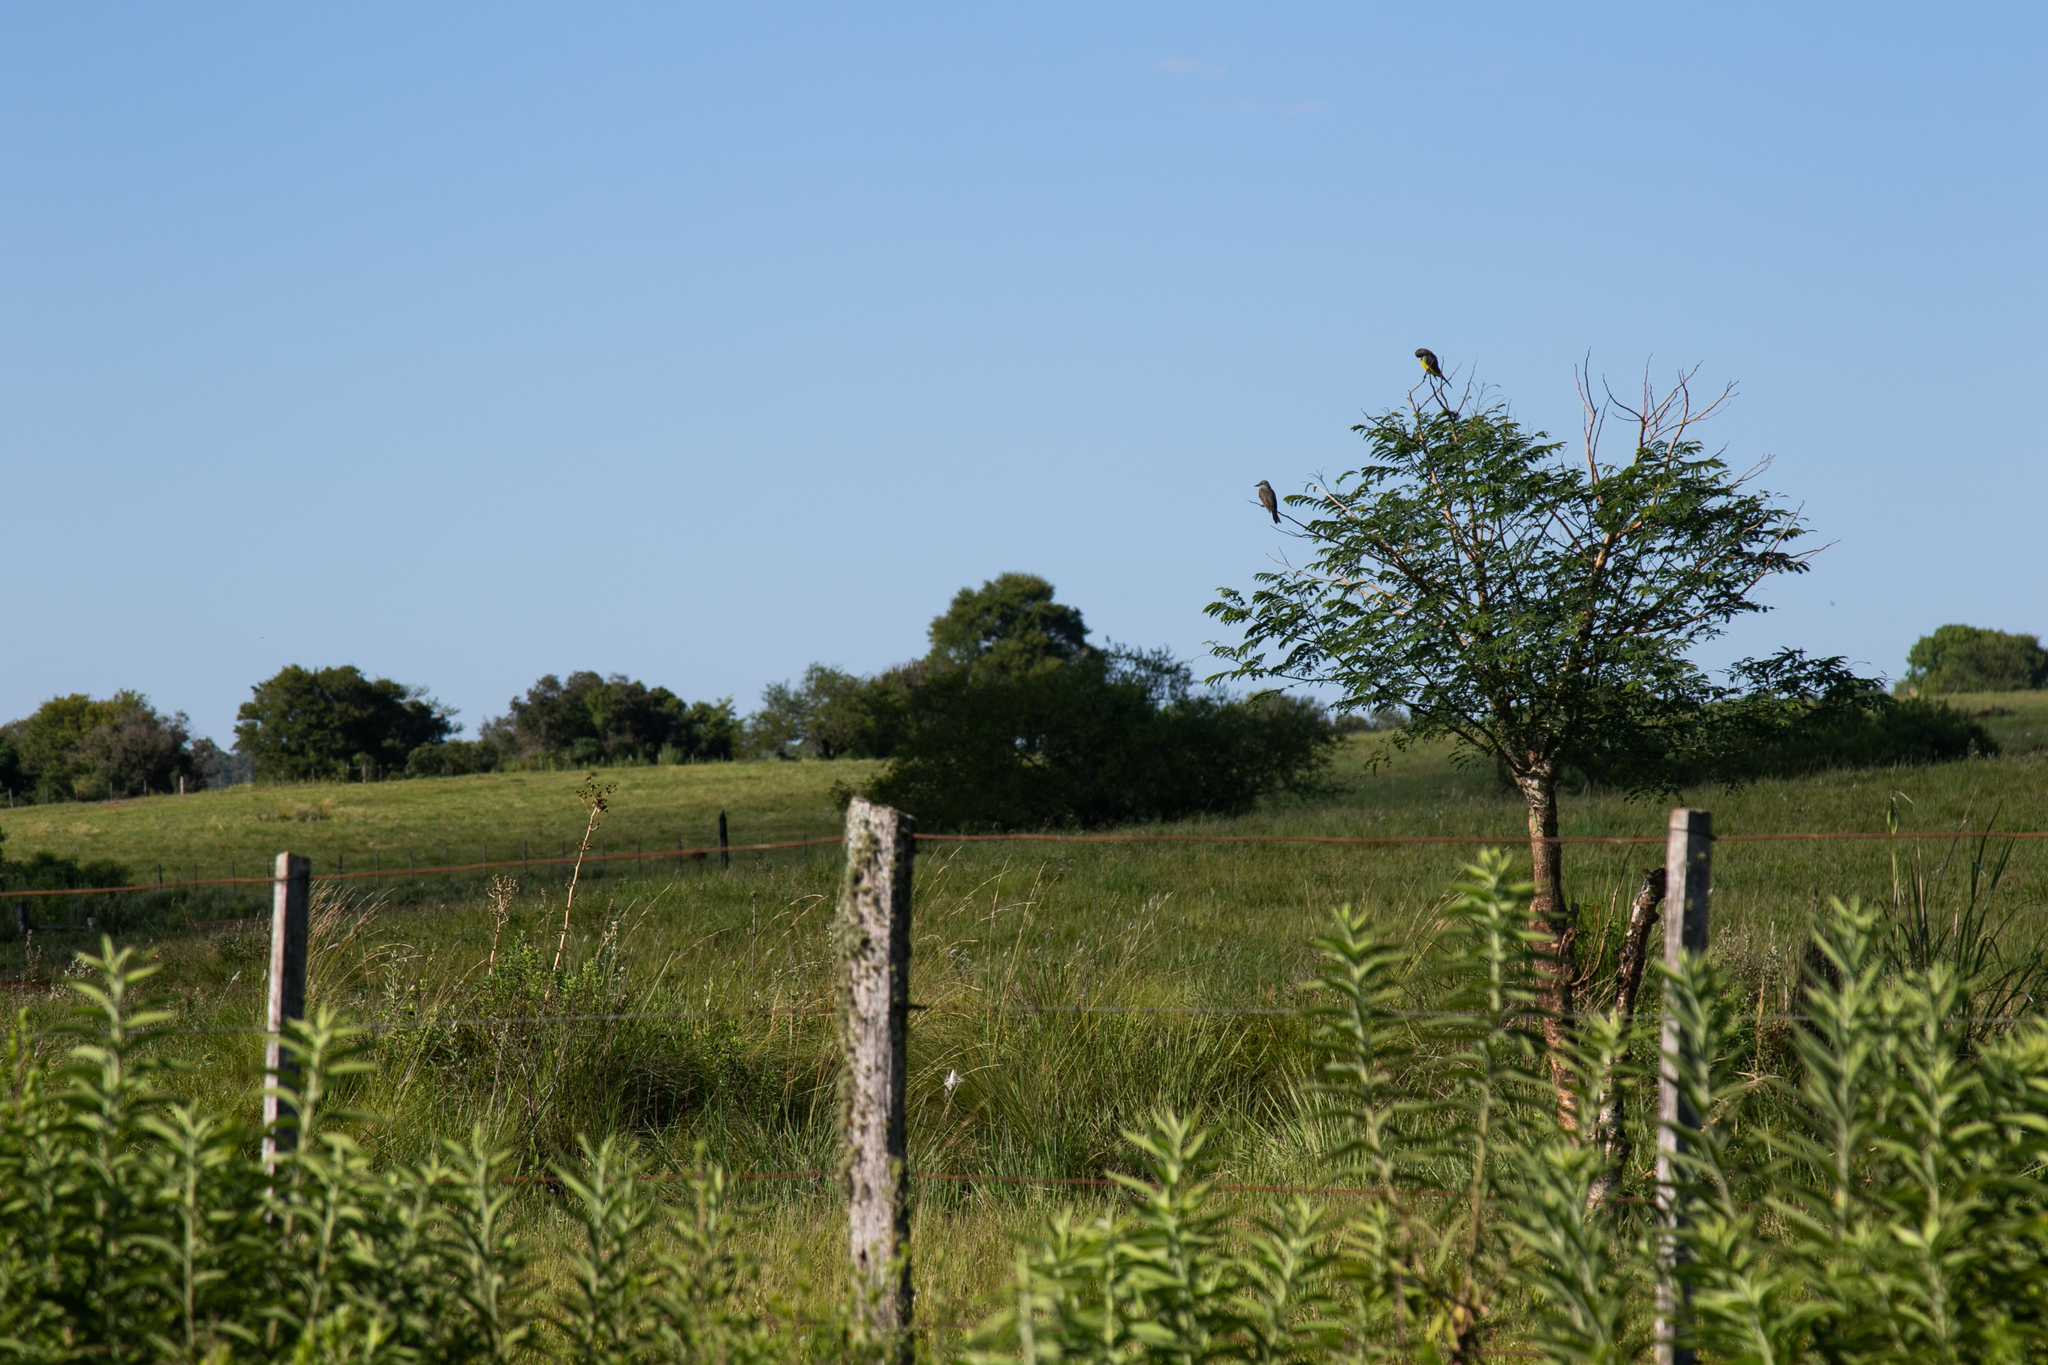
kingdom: Animalia
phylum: Chordata
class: Aves
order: Passeriformes
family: Tyrannidae
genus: Tyrannus
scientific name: Tyrannus melancholicus
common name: Tropical kingbird
